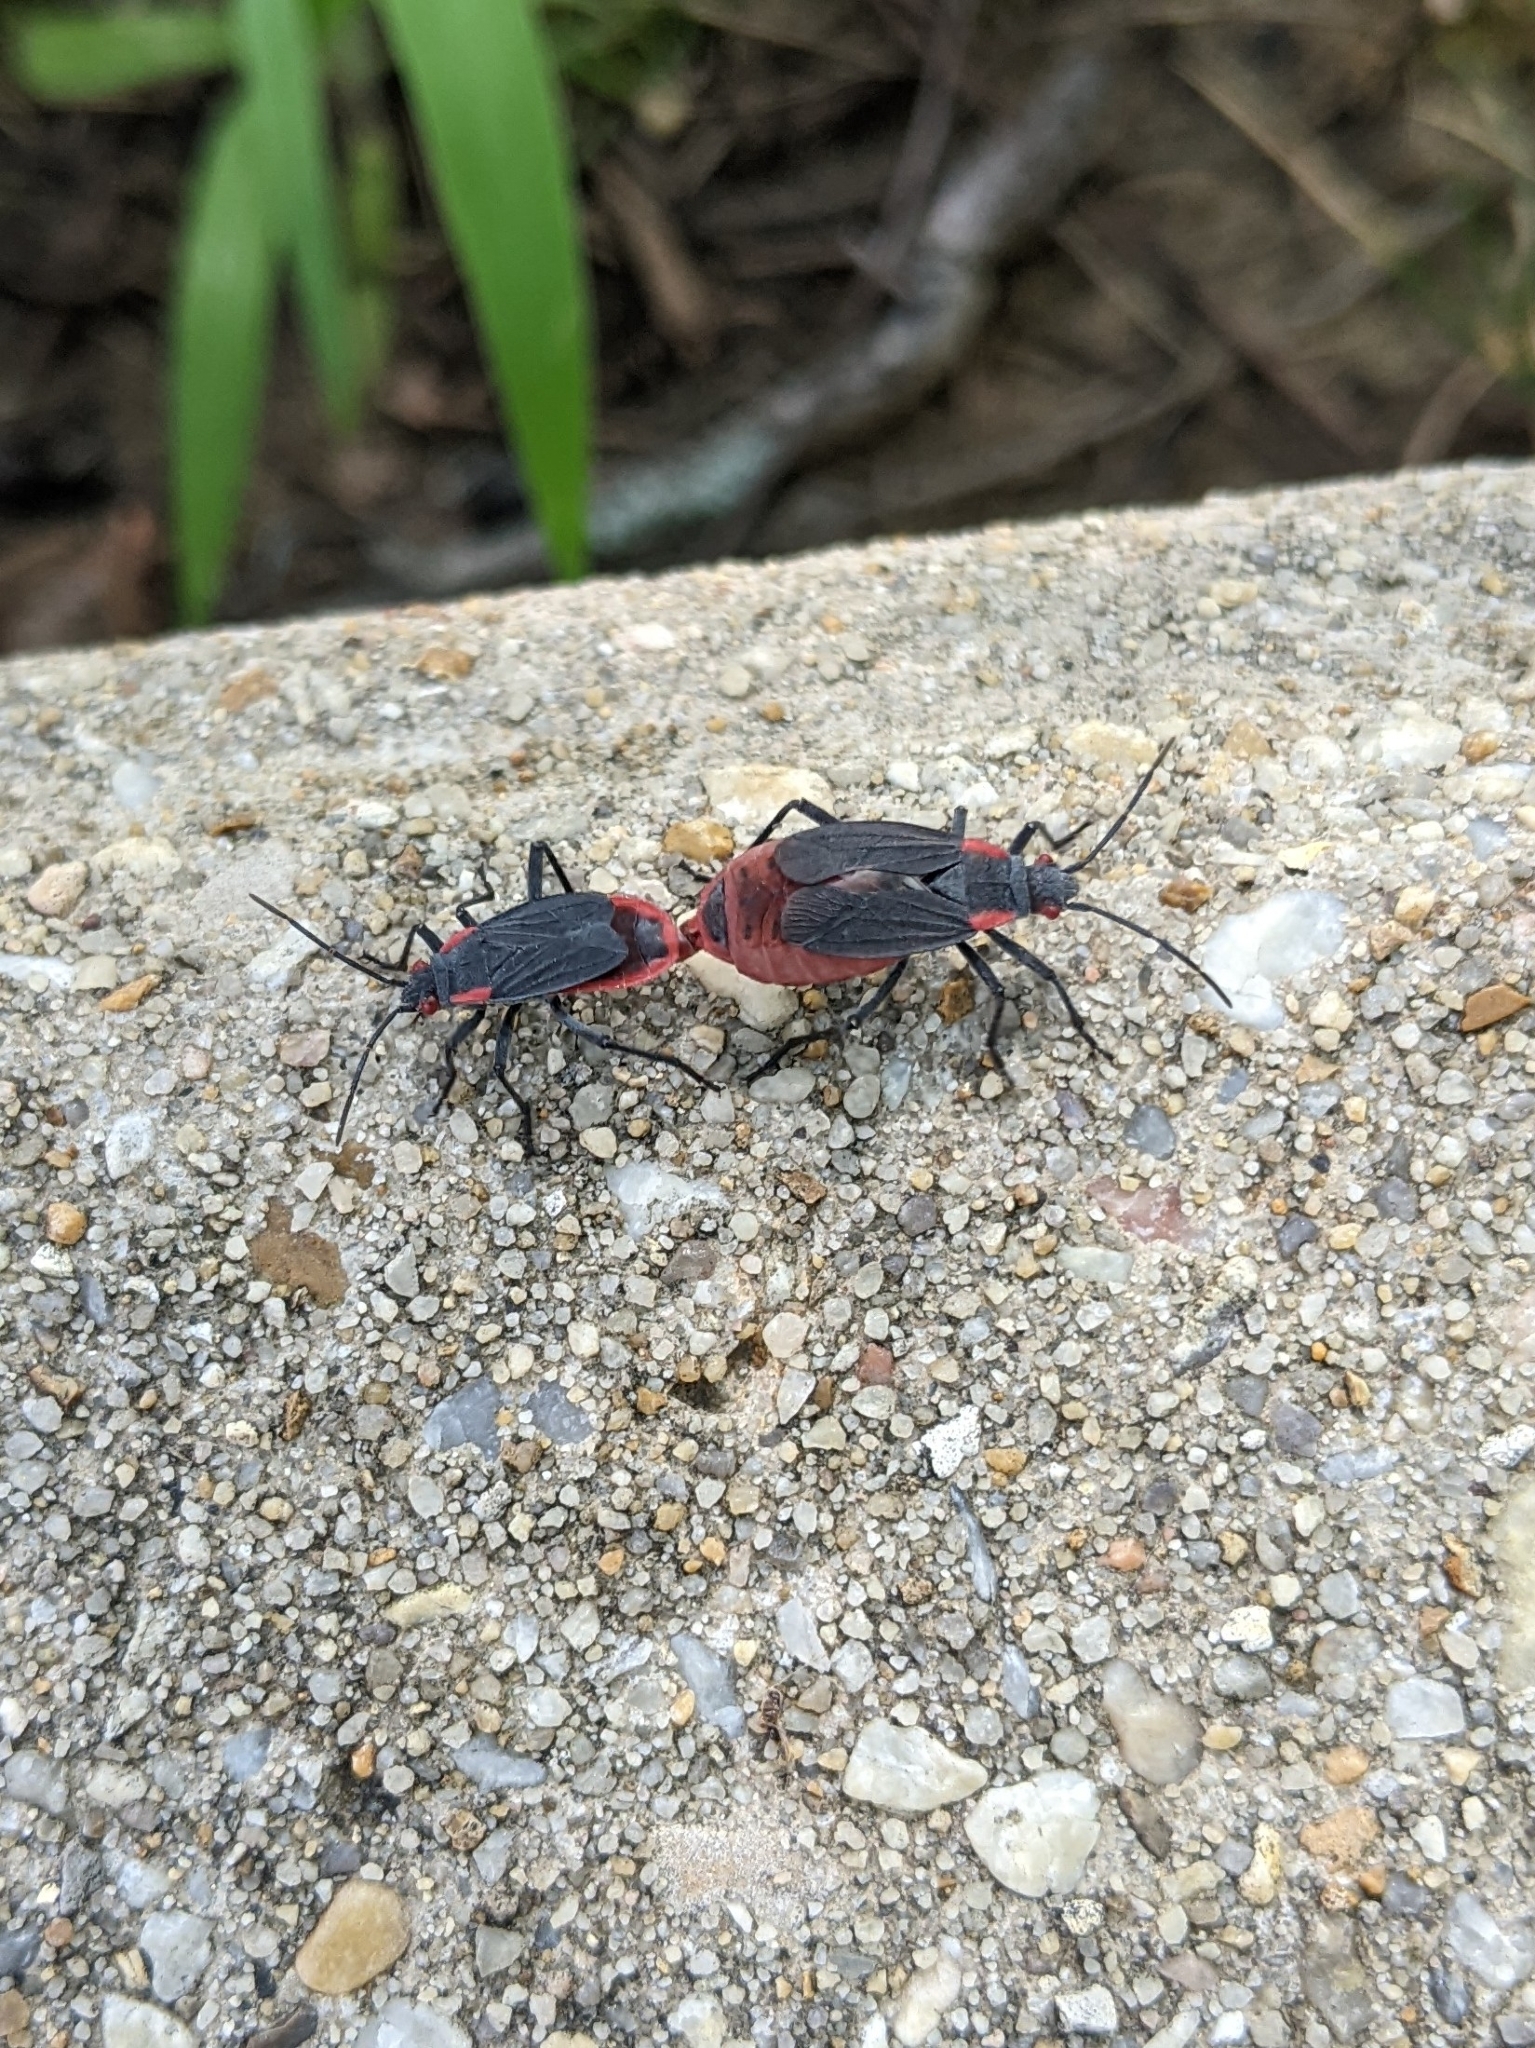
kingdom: Animalia
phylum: Arthropoda
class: Insecta
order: Hemiptera
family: Rhopalidae
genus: Jadera
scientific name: Jadera haematoloma
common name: Red-shouldered bug
